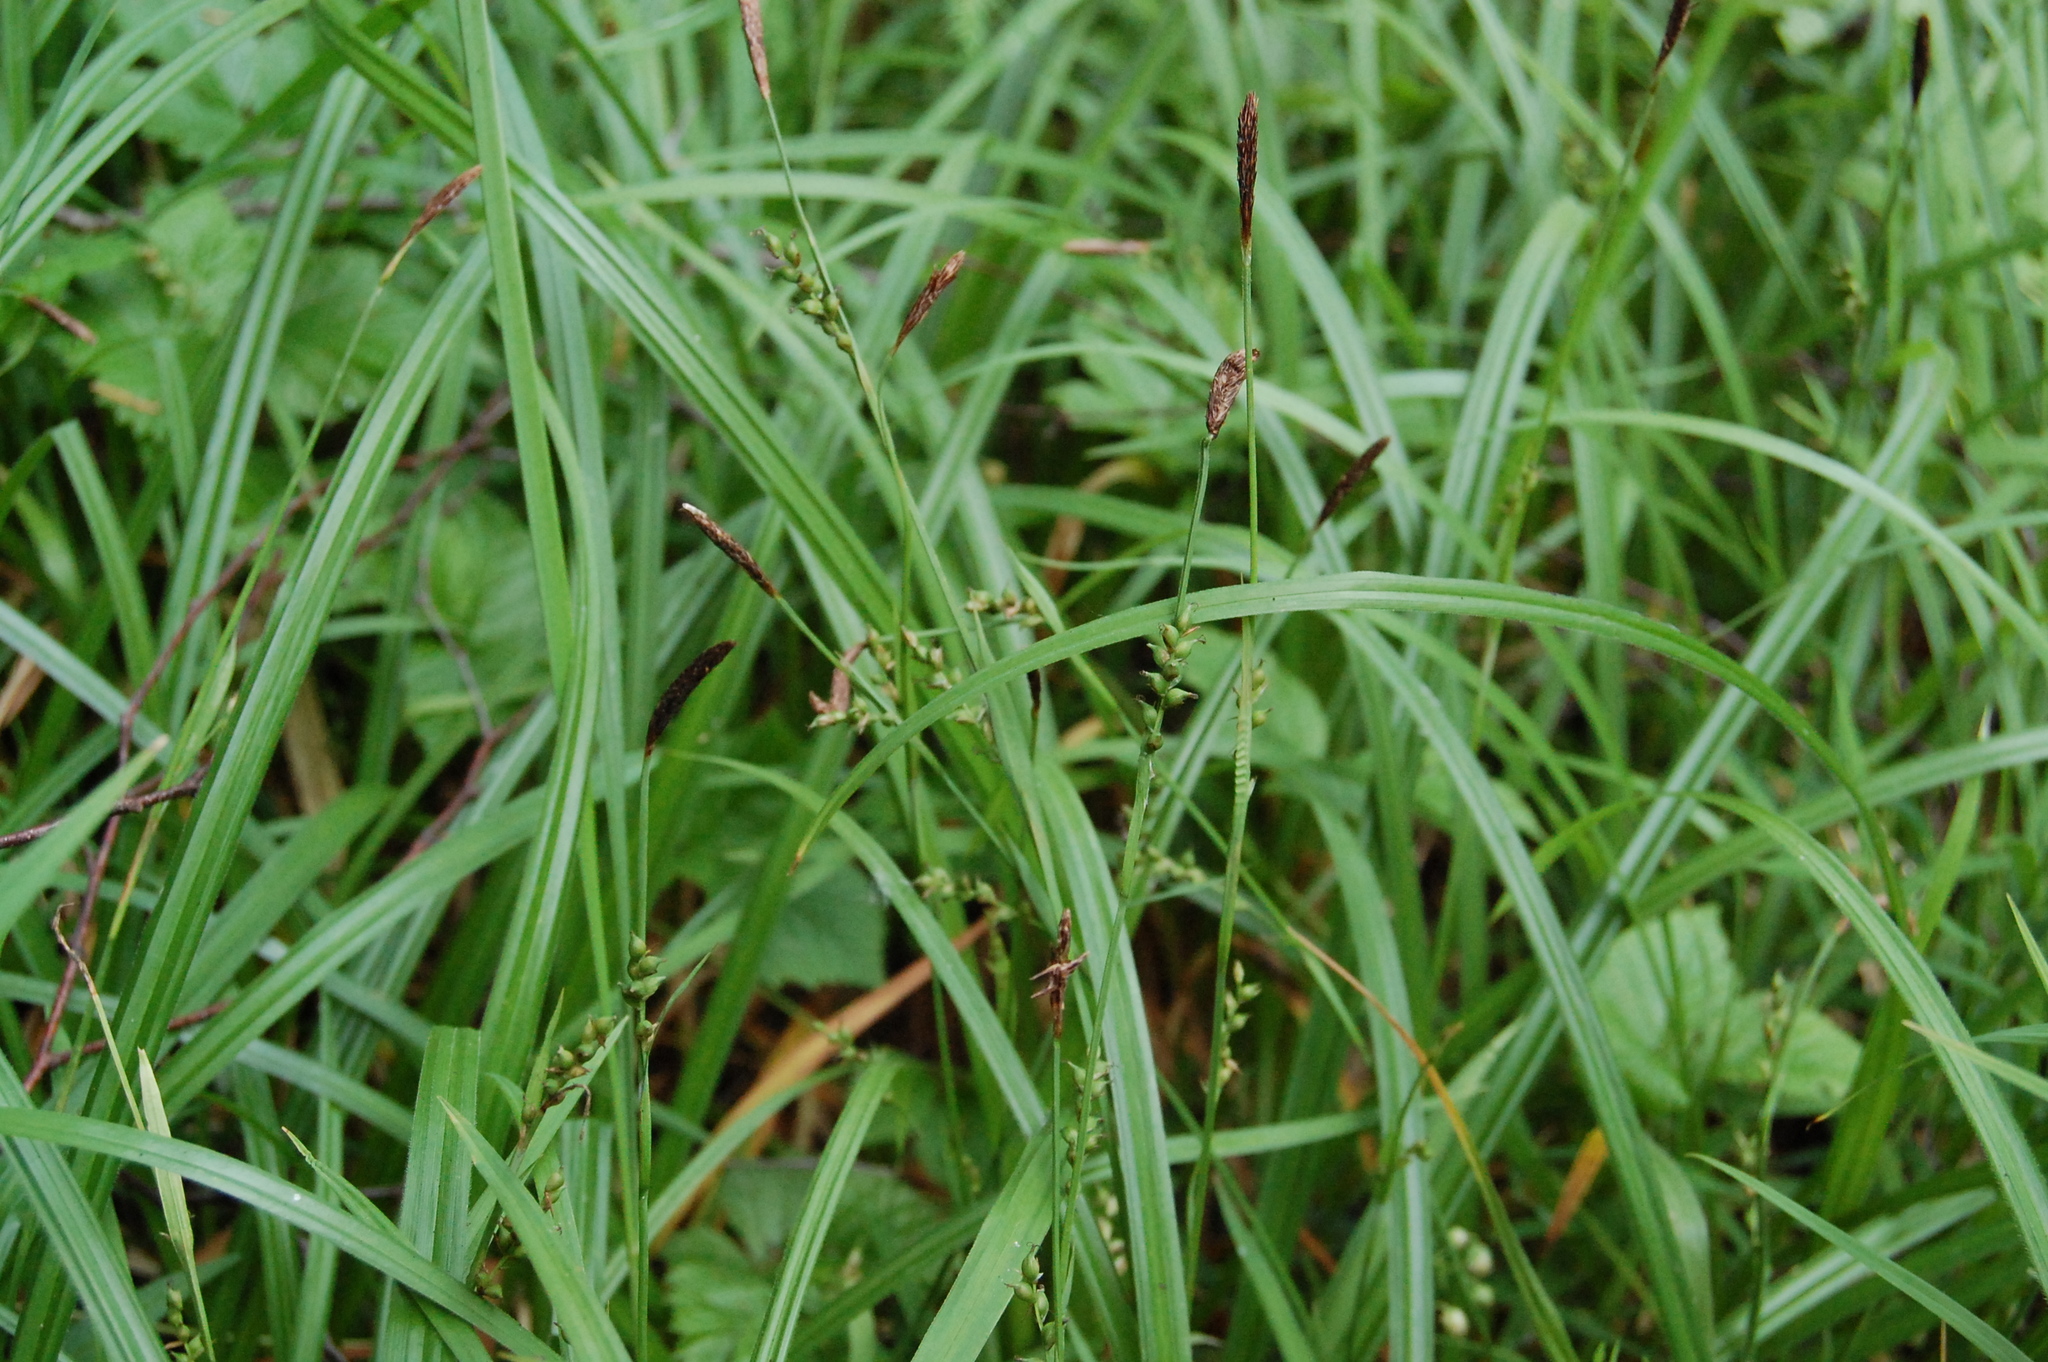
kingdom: Plantae
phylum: Tracheophyta
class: Liliopsida
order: Poales
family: Cyperaceae
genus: Carex
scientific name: Carex pilosa
